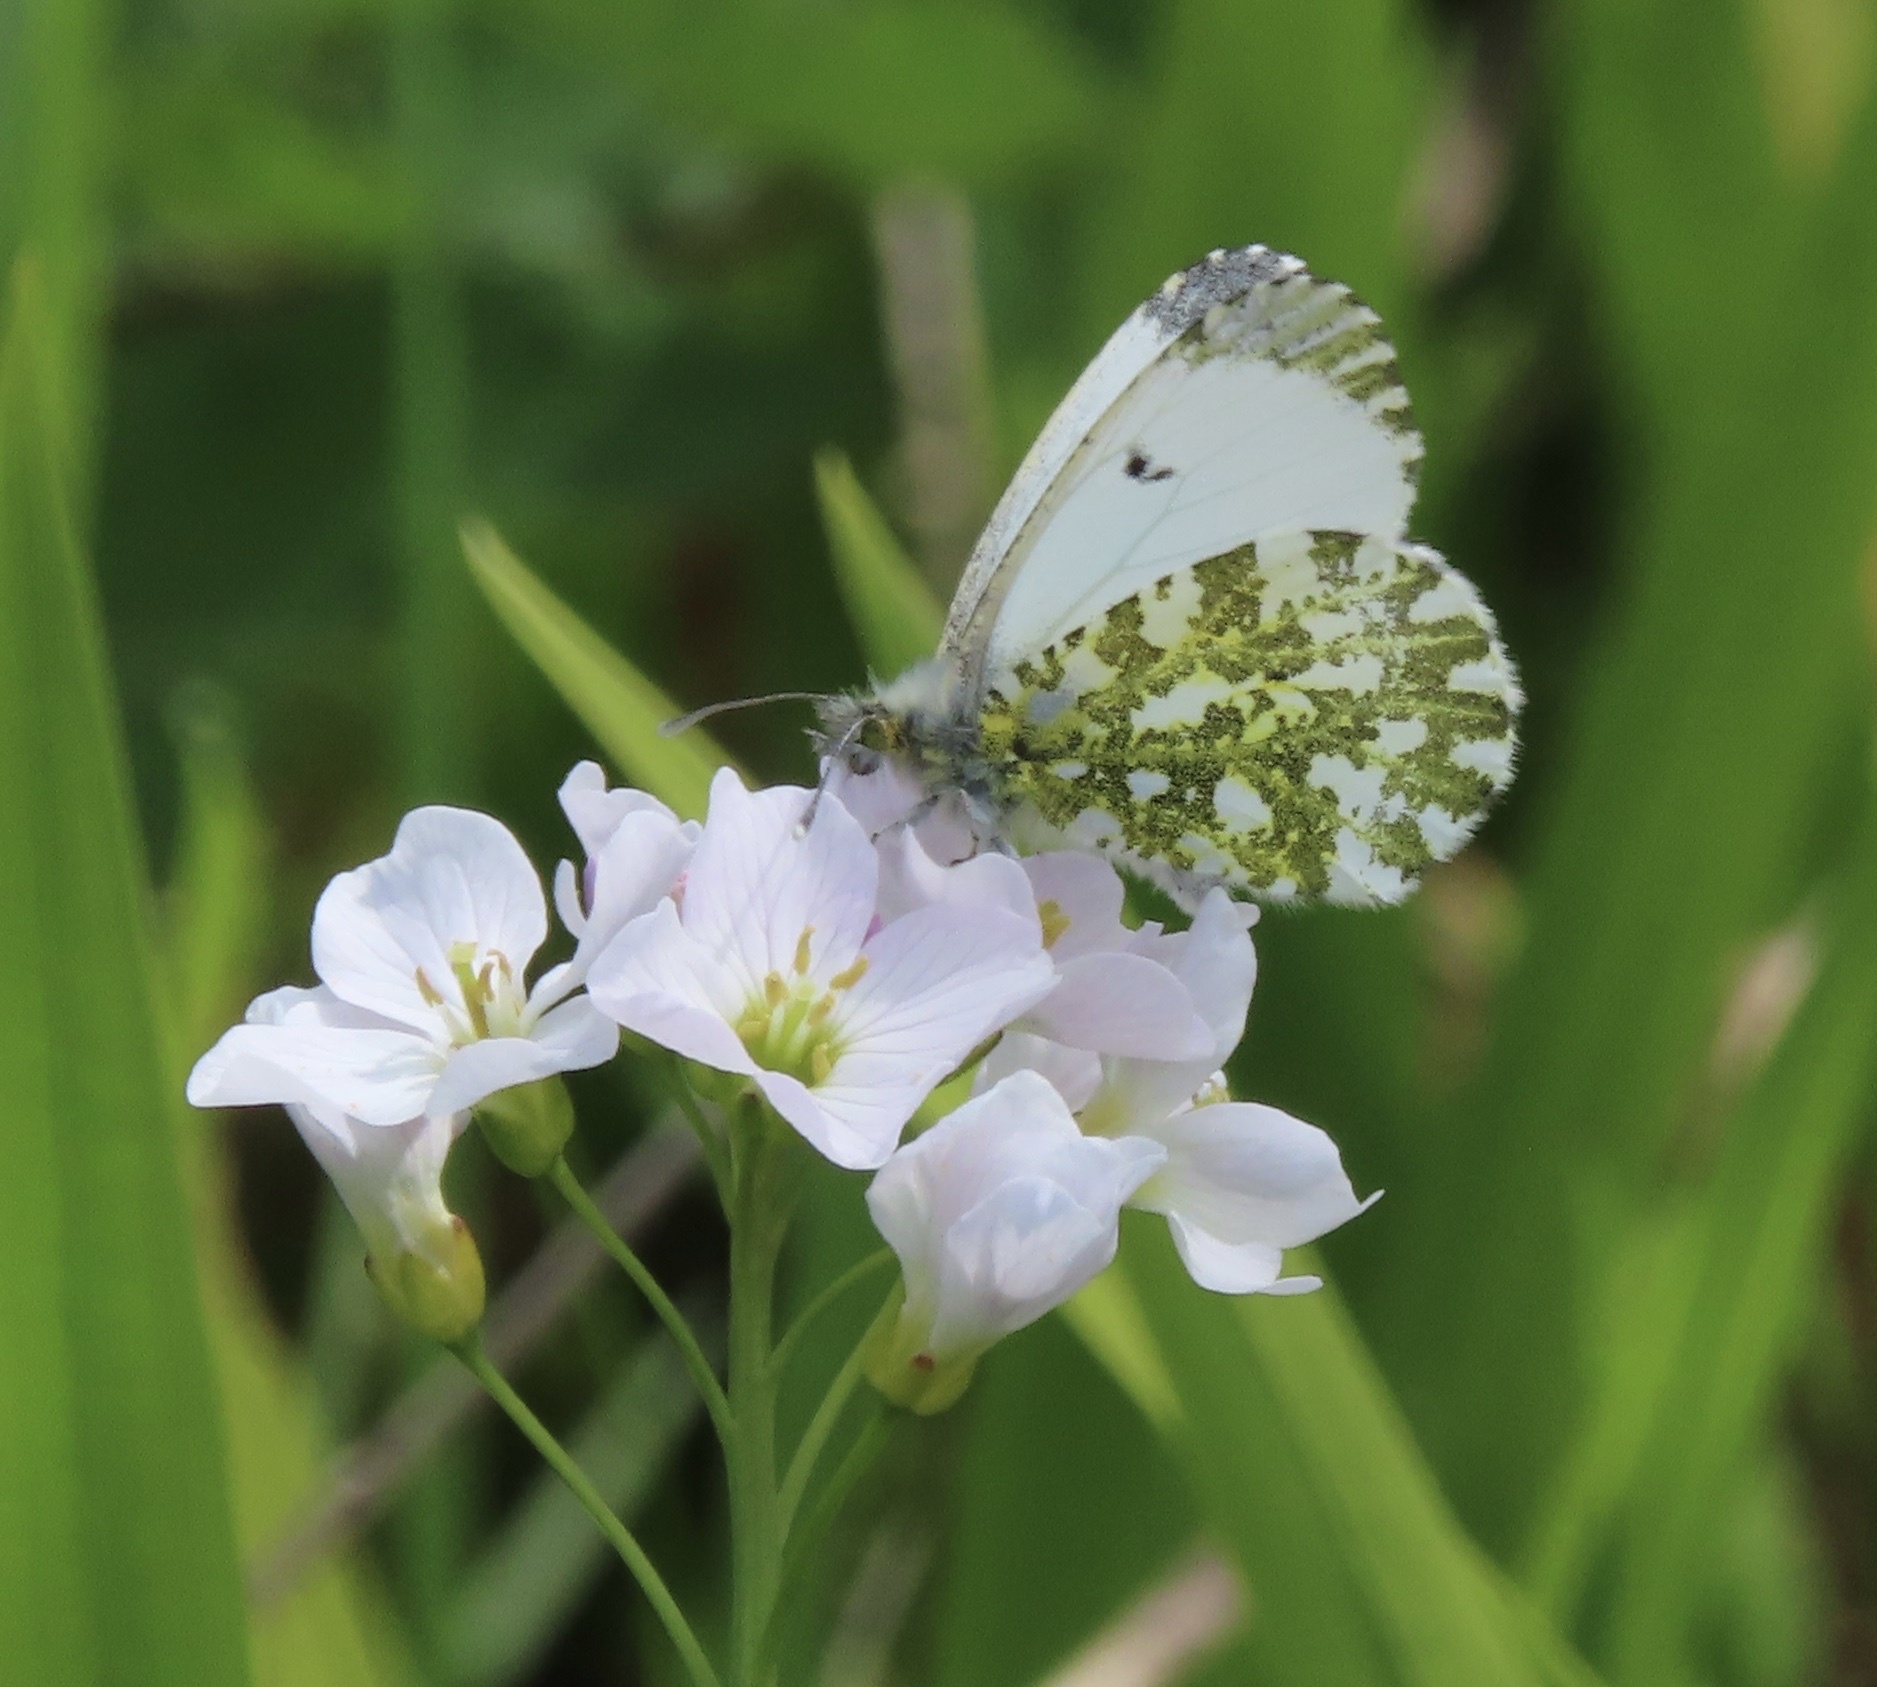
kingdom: Animalia
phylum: Arthropoda
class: Insecta
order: Lepidoptera
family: Pieridae
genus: Anthocharis
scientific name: Anthocharis cardamines
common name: Orange-tip
